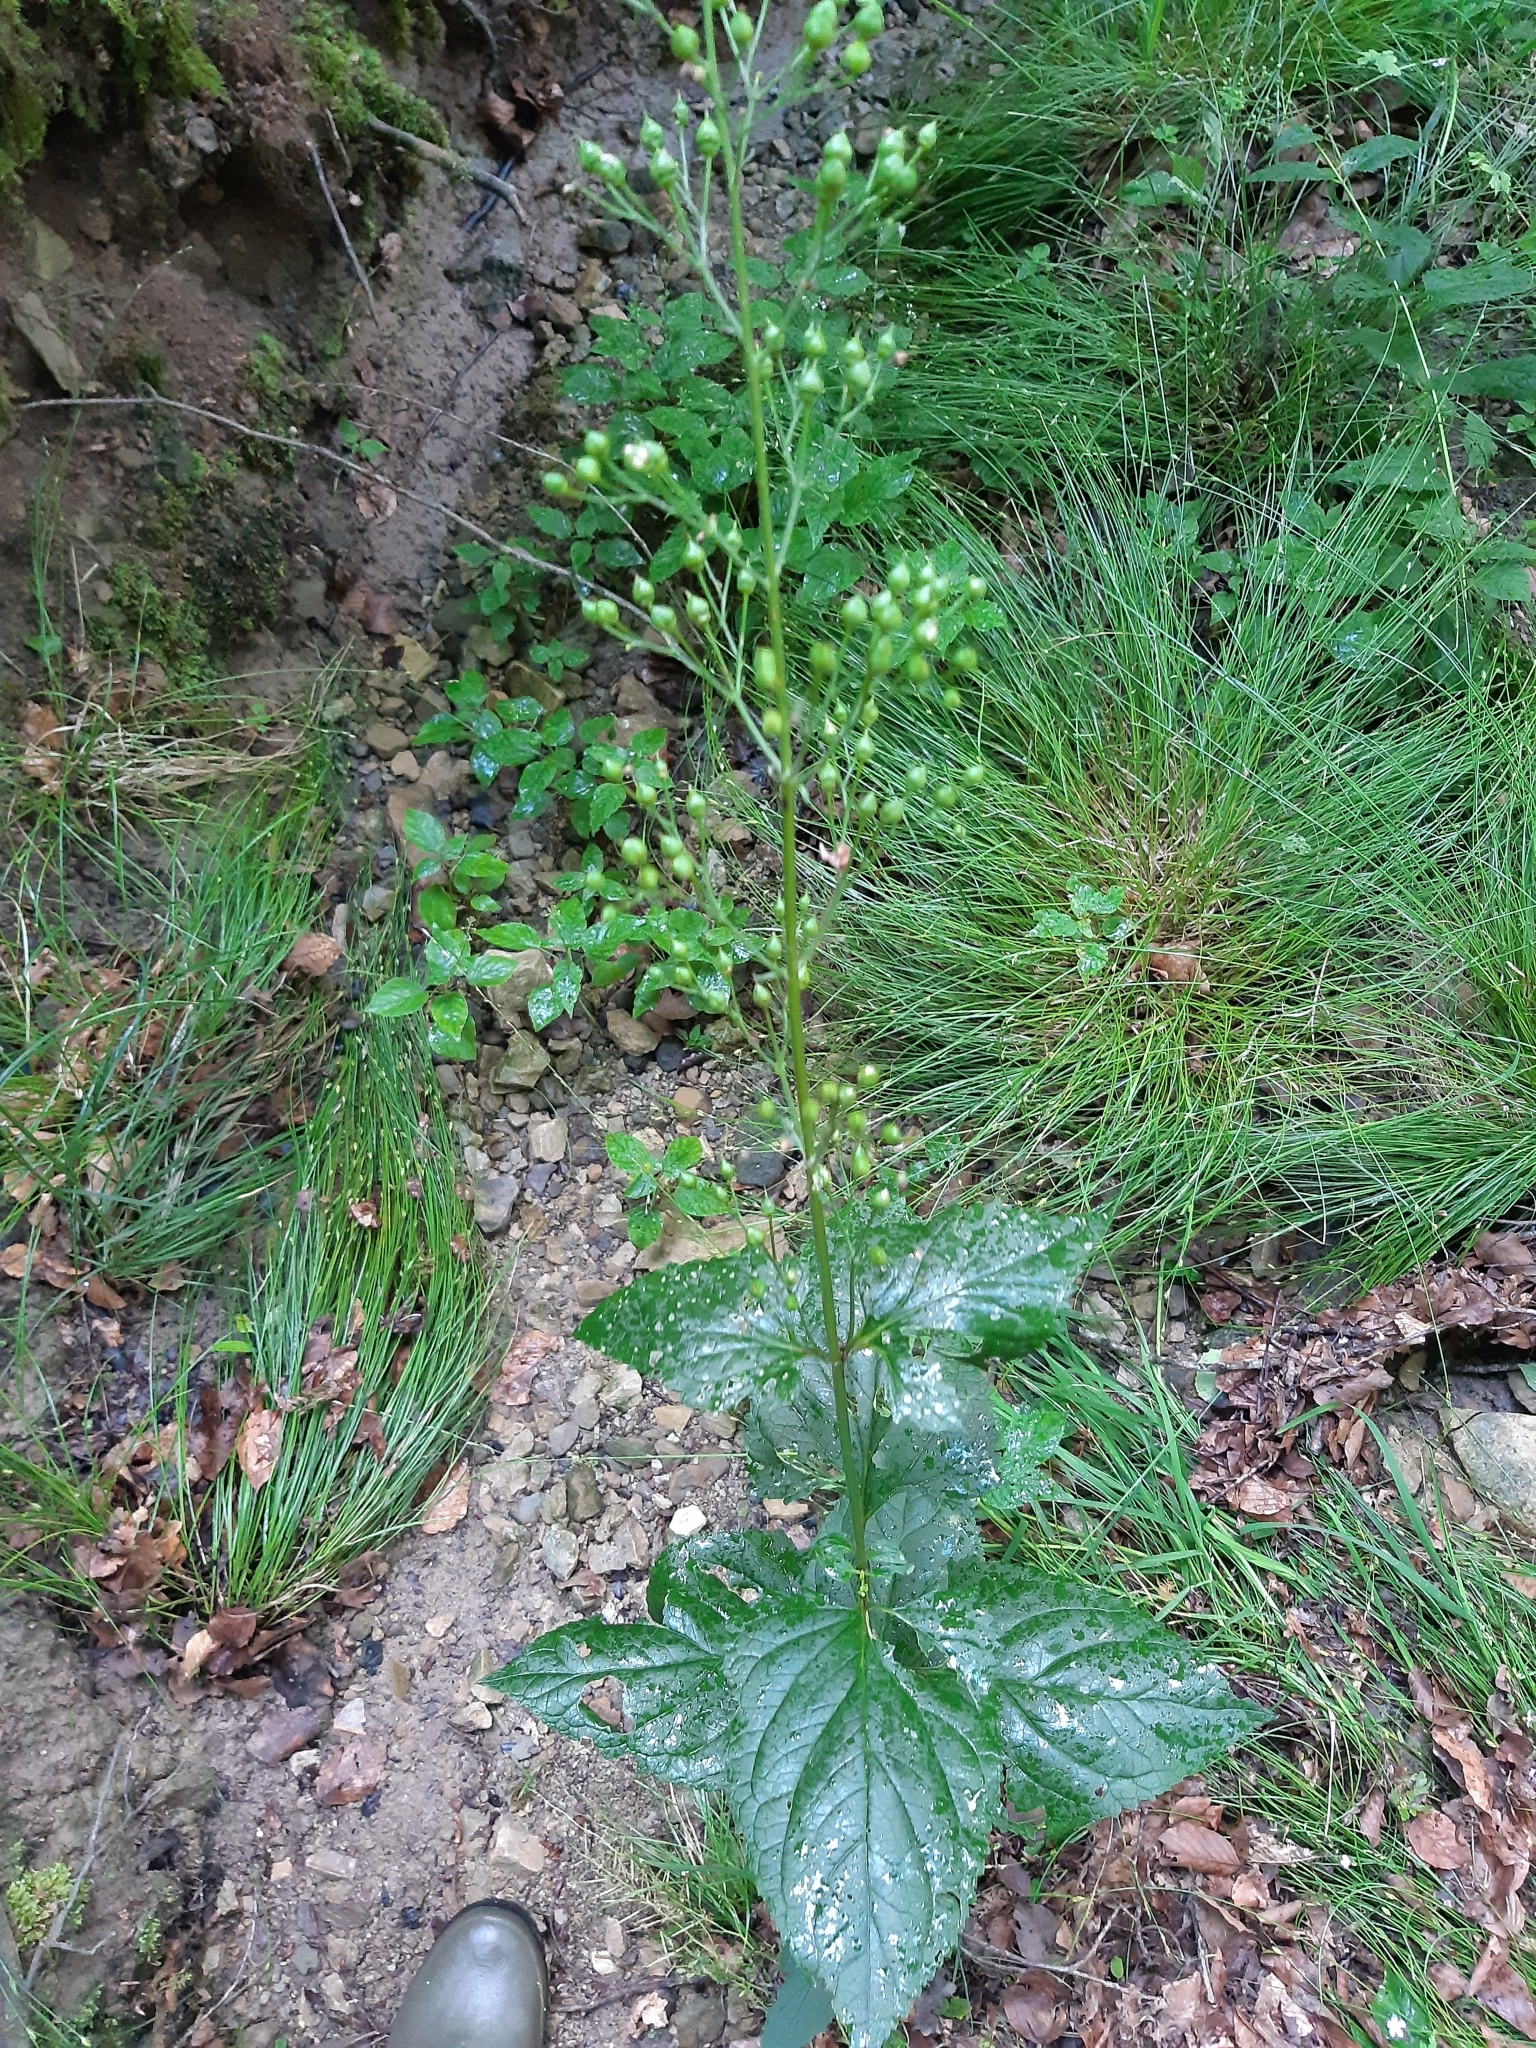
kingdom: Plantae
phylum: Tracheophyta
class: Magnoliopsida
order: Lamiales
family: Scrophulariaceae
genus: Scrophularia
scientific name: Scrophularia nodosa
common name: Common figwort
